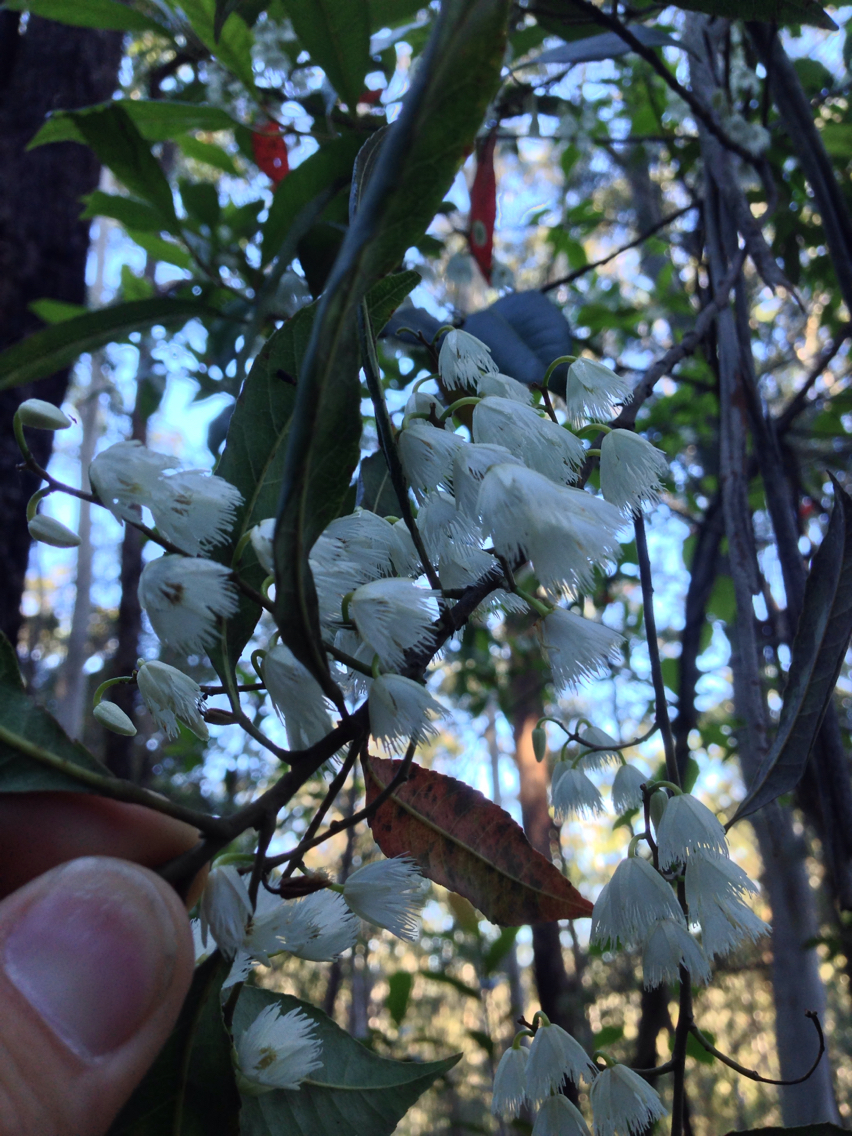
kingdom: Plantae
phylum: Tracheophyta
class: Magnoliopsida
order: Oxalidales
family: Elaeocarpaceae
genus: Elaeocarpus
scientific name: Elaeocarpus reticulatus
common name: Ash quandong
